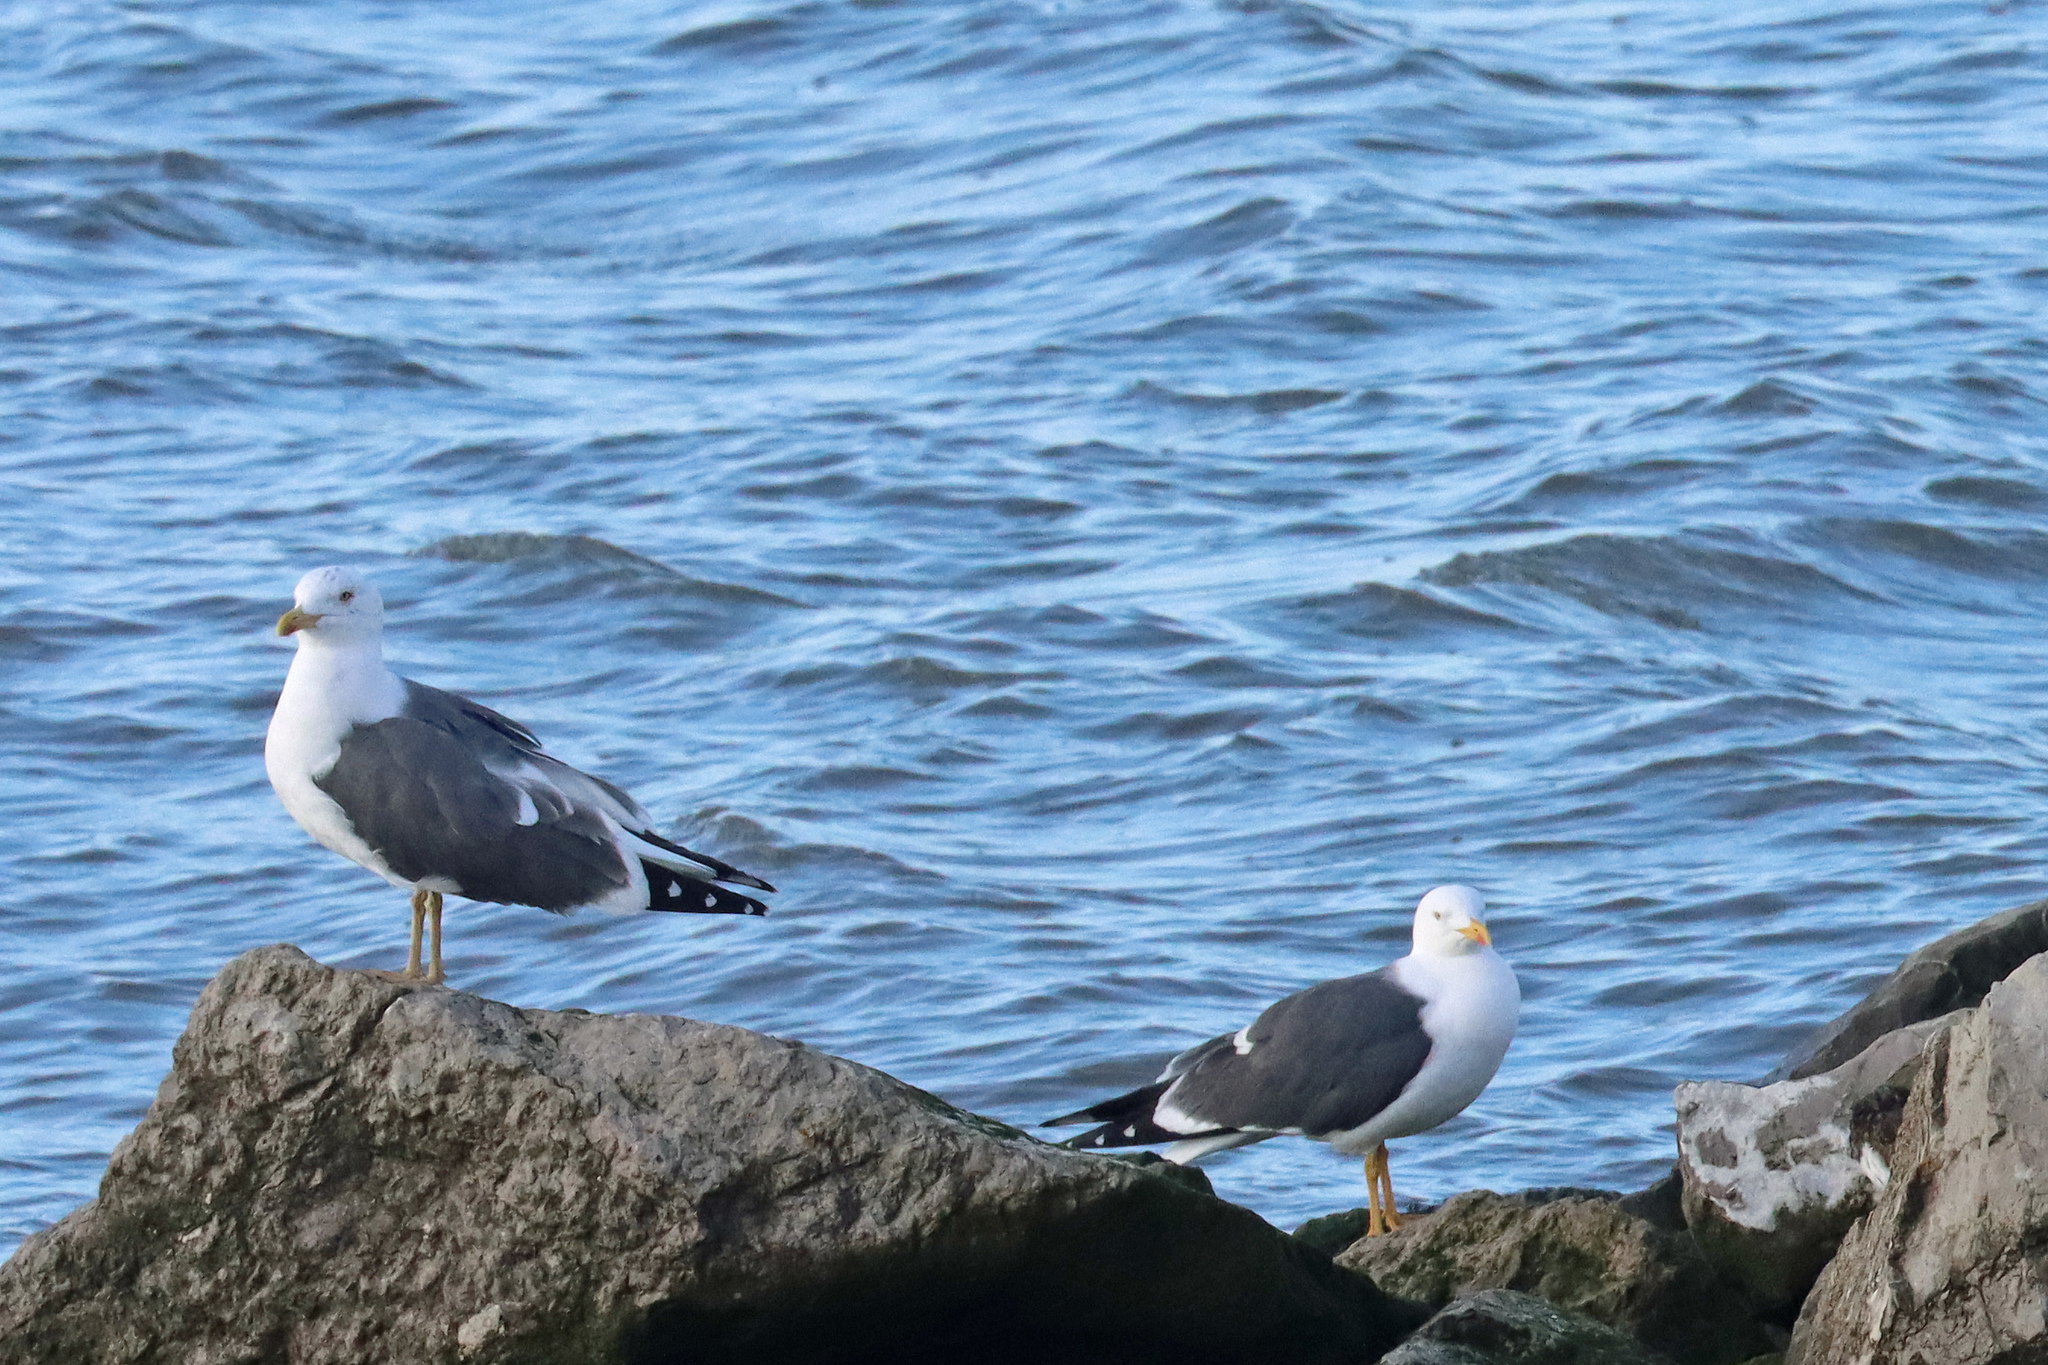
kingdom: Animalia
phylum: Chordata
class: Aves
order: Charadriiformes
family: Laridae
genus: Larus
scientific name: Larus fuscus
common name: Lesser black-backed gull
